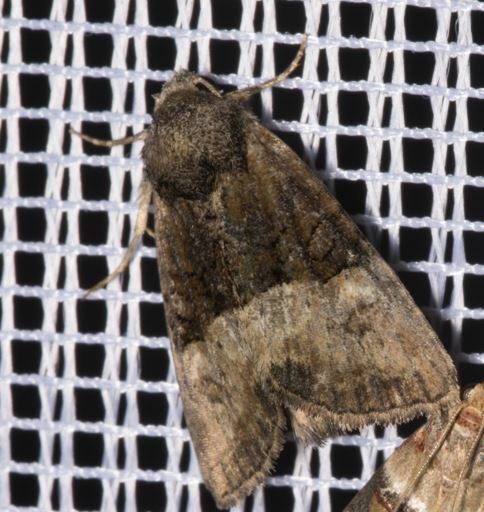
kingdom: Animalia
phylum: Arthropoda
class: Insecta
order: Lepidoptera
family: Noctuidae
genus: Mesoligia
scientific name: Mesoligia furuncula
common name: Cloaked minor
